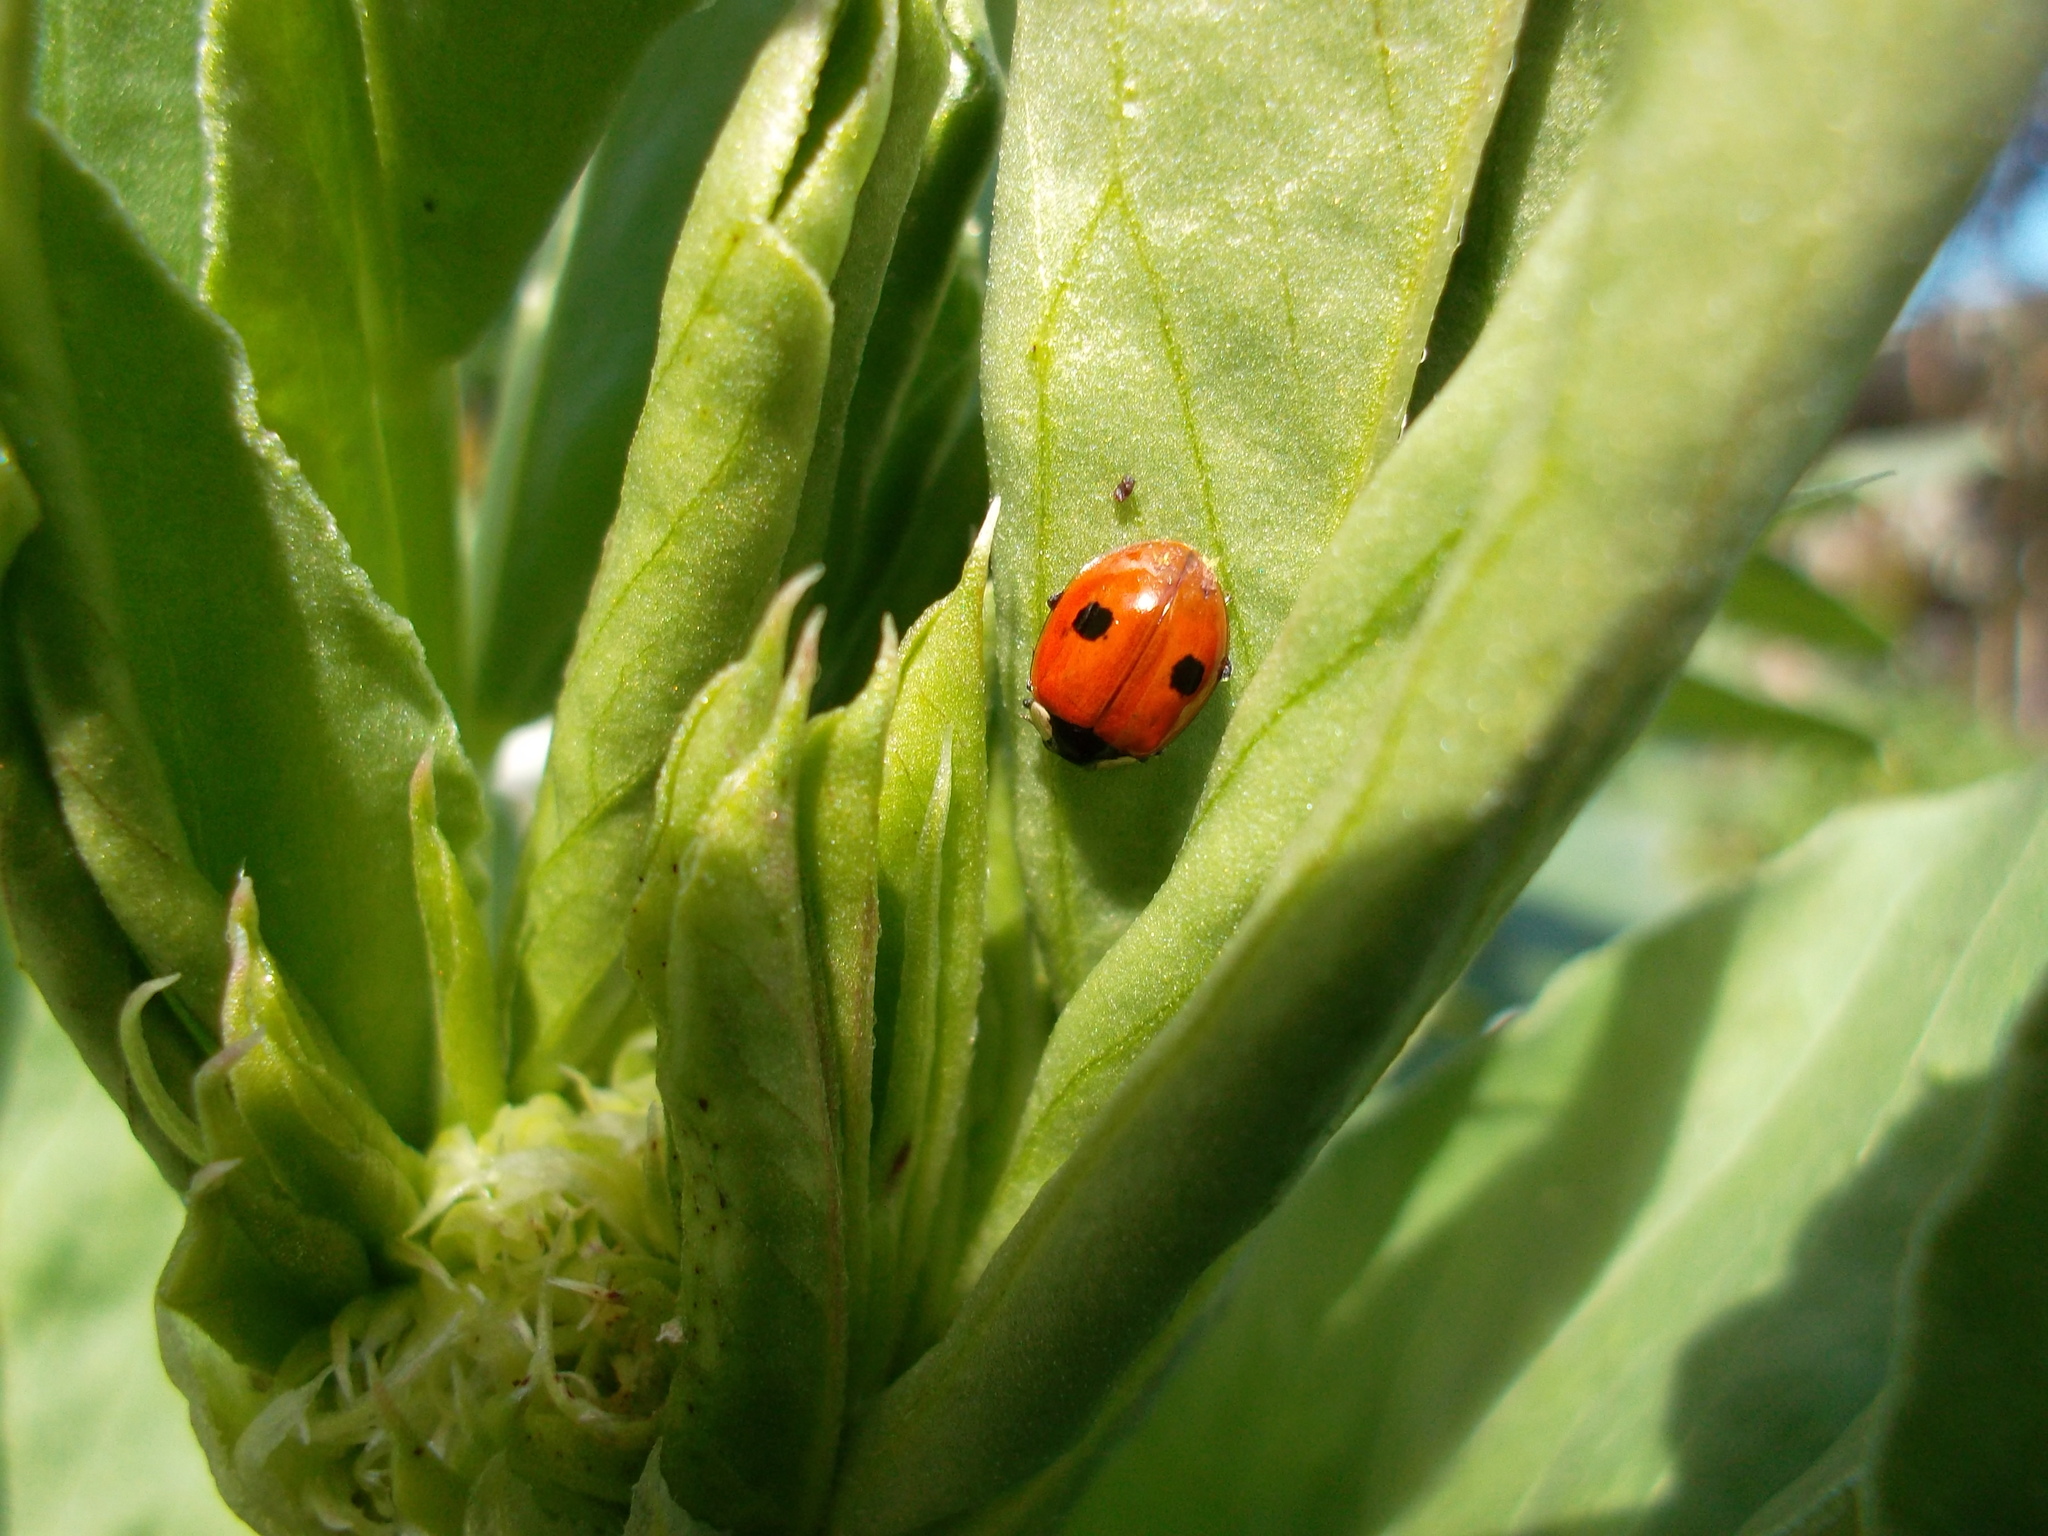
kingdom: Animalia
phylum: Arthropoda
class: Insecta
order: Coleoptera
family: Coccinellidae
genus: Adalia
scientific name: Adalia bipunctata
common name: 2-spot ladybird
